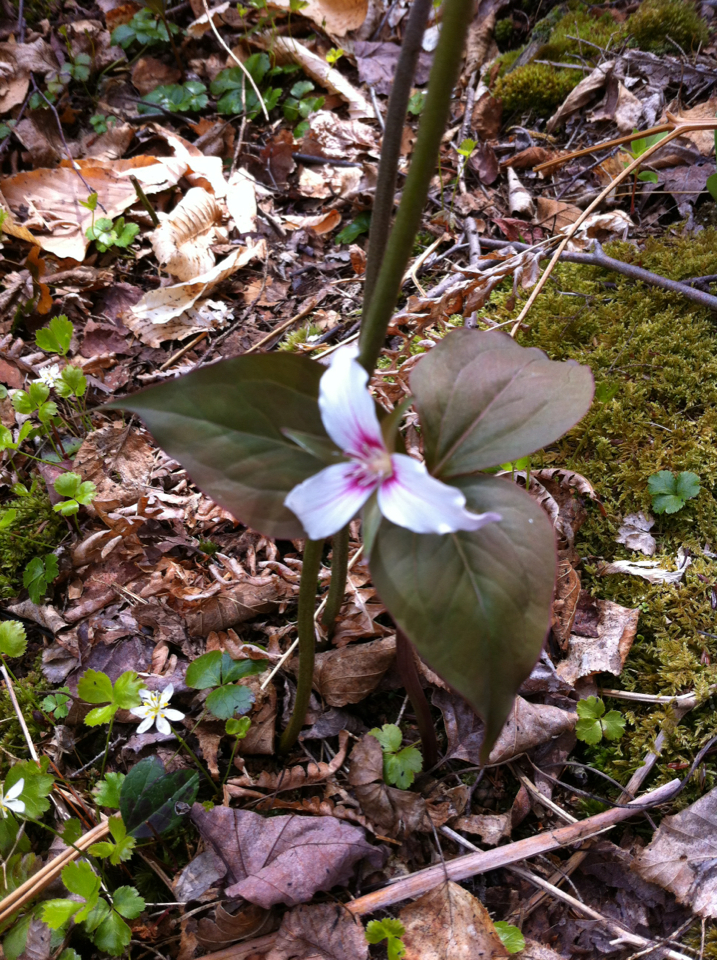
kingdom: Plantae
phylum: Tracheophyta
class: Liliopsida
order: Liliales
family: Melanthiaceae
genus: Trillium
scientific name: Trillium undulatum
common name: Paint trillium
